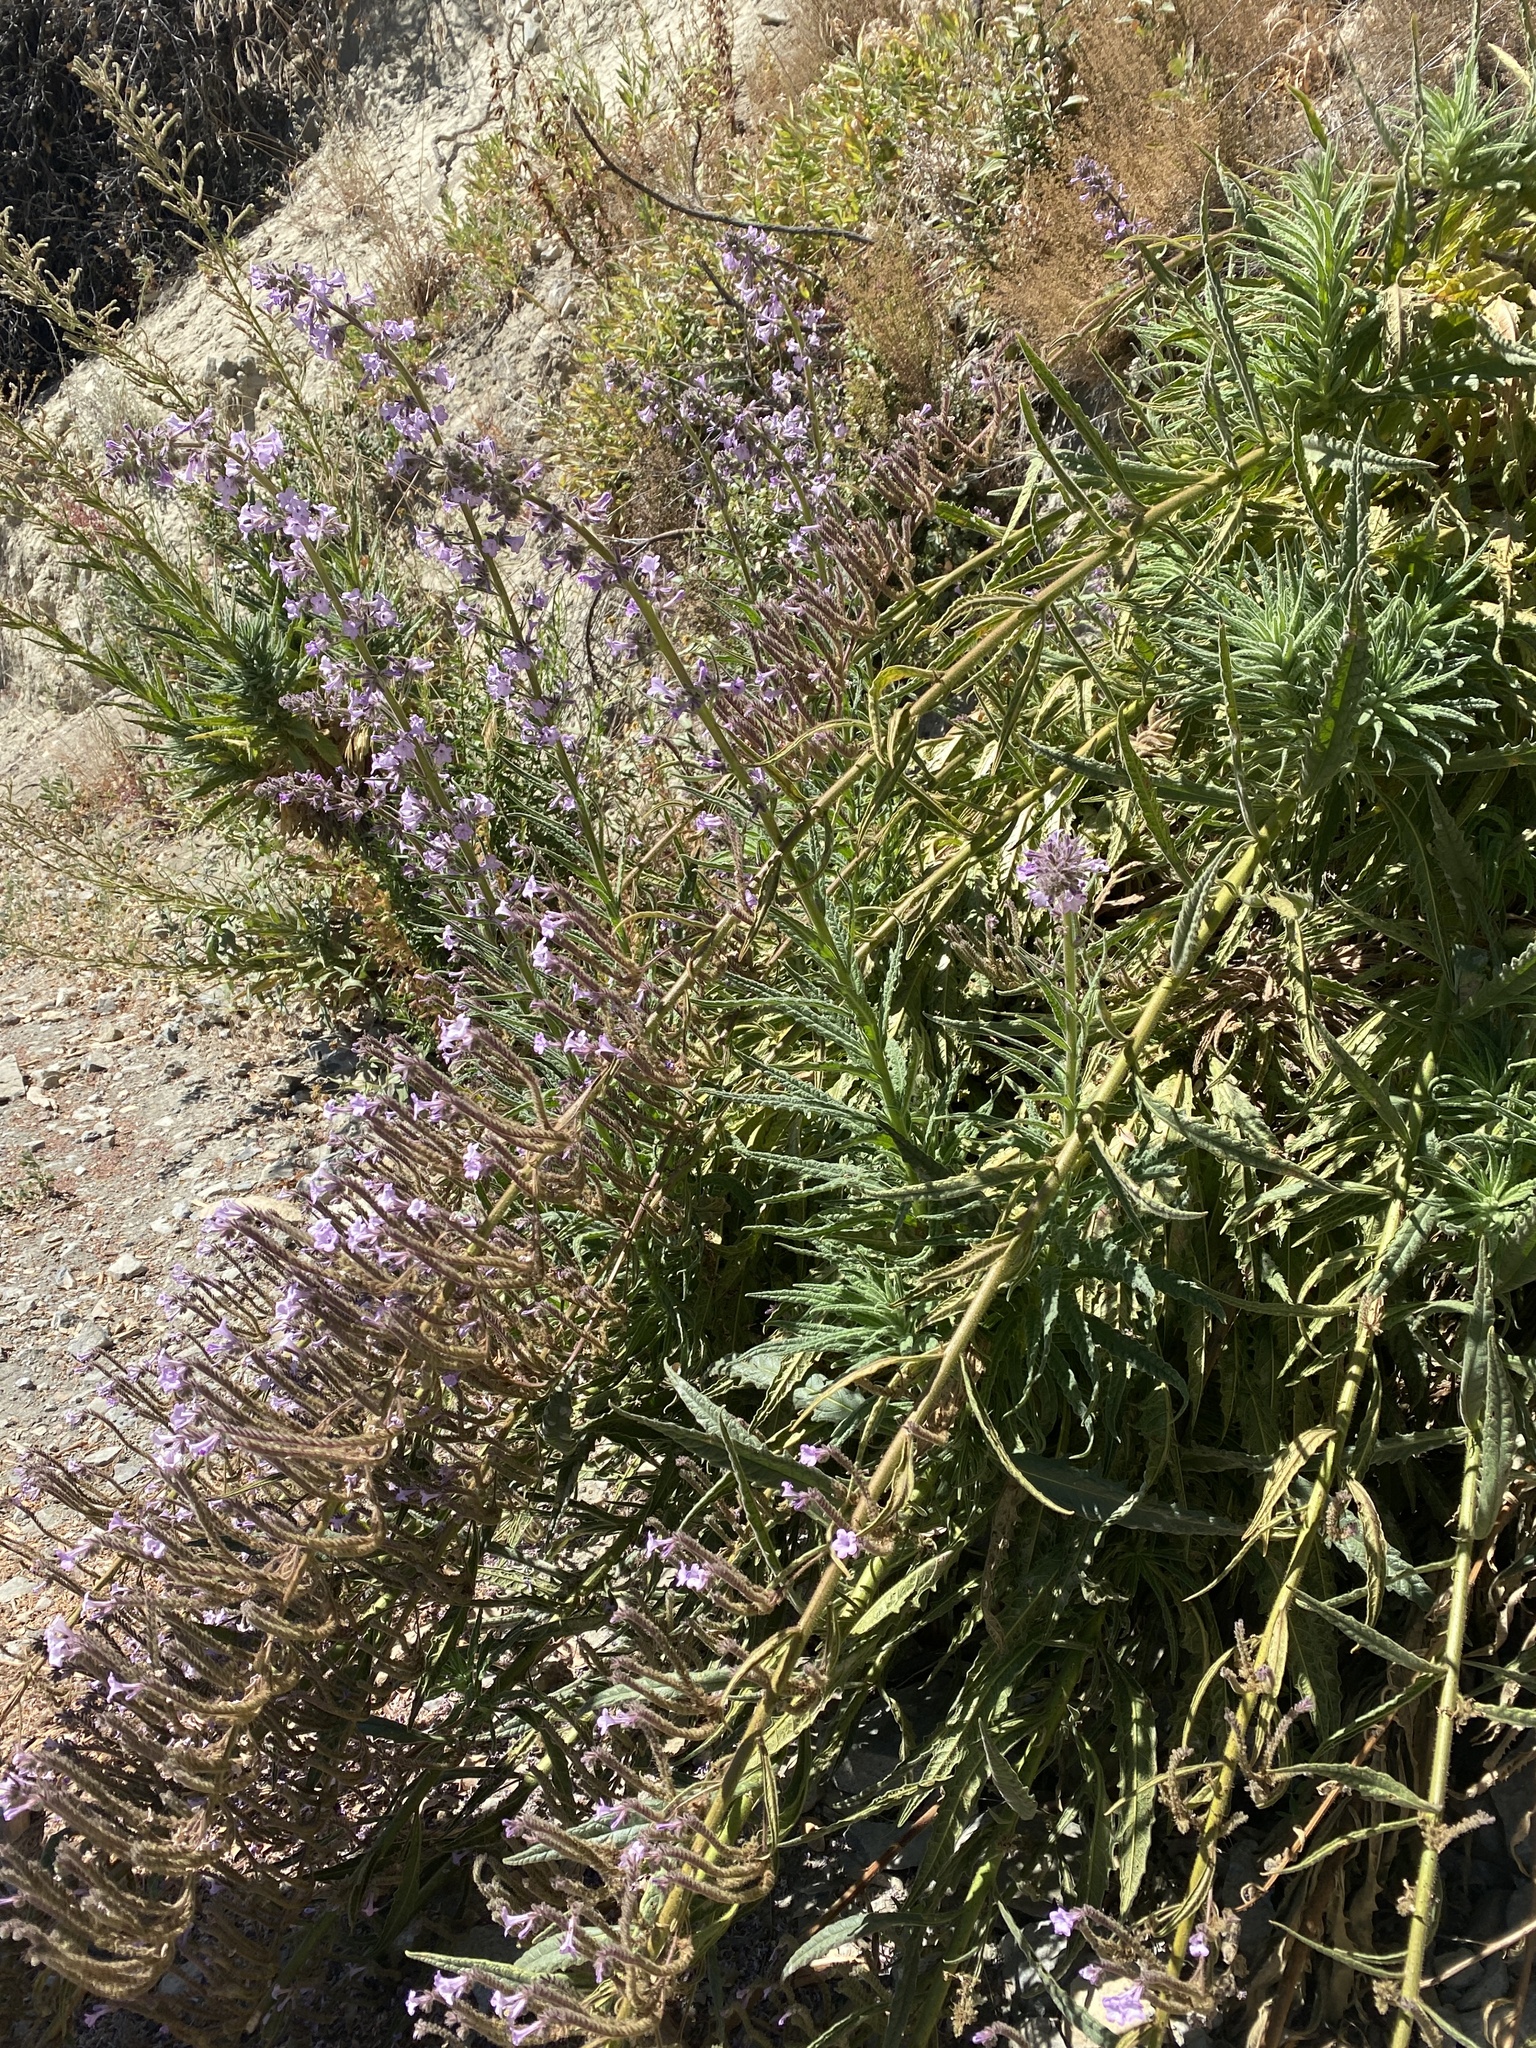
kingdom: Plantae
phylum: Tracheophyta
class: Magnoliopsida
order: Boraginales
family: Namaceae
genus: Turricula
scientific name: Turricula parryi
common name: Poodle-dog-bush
